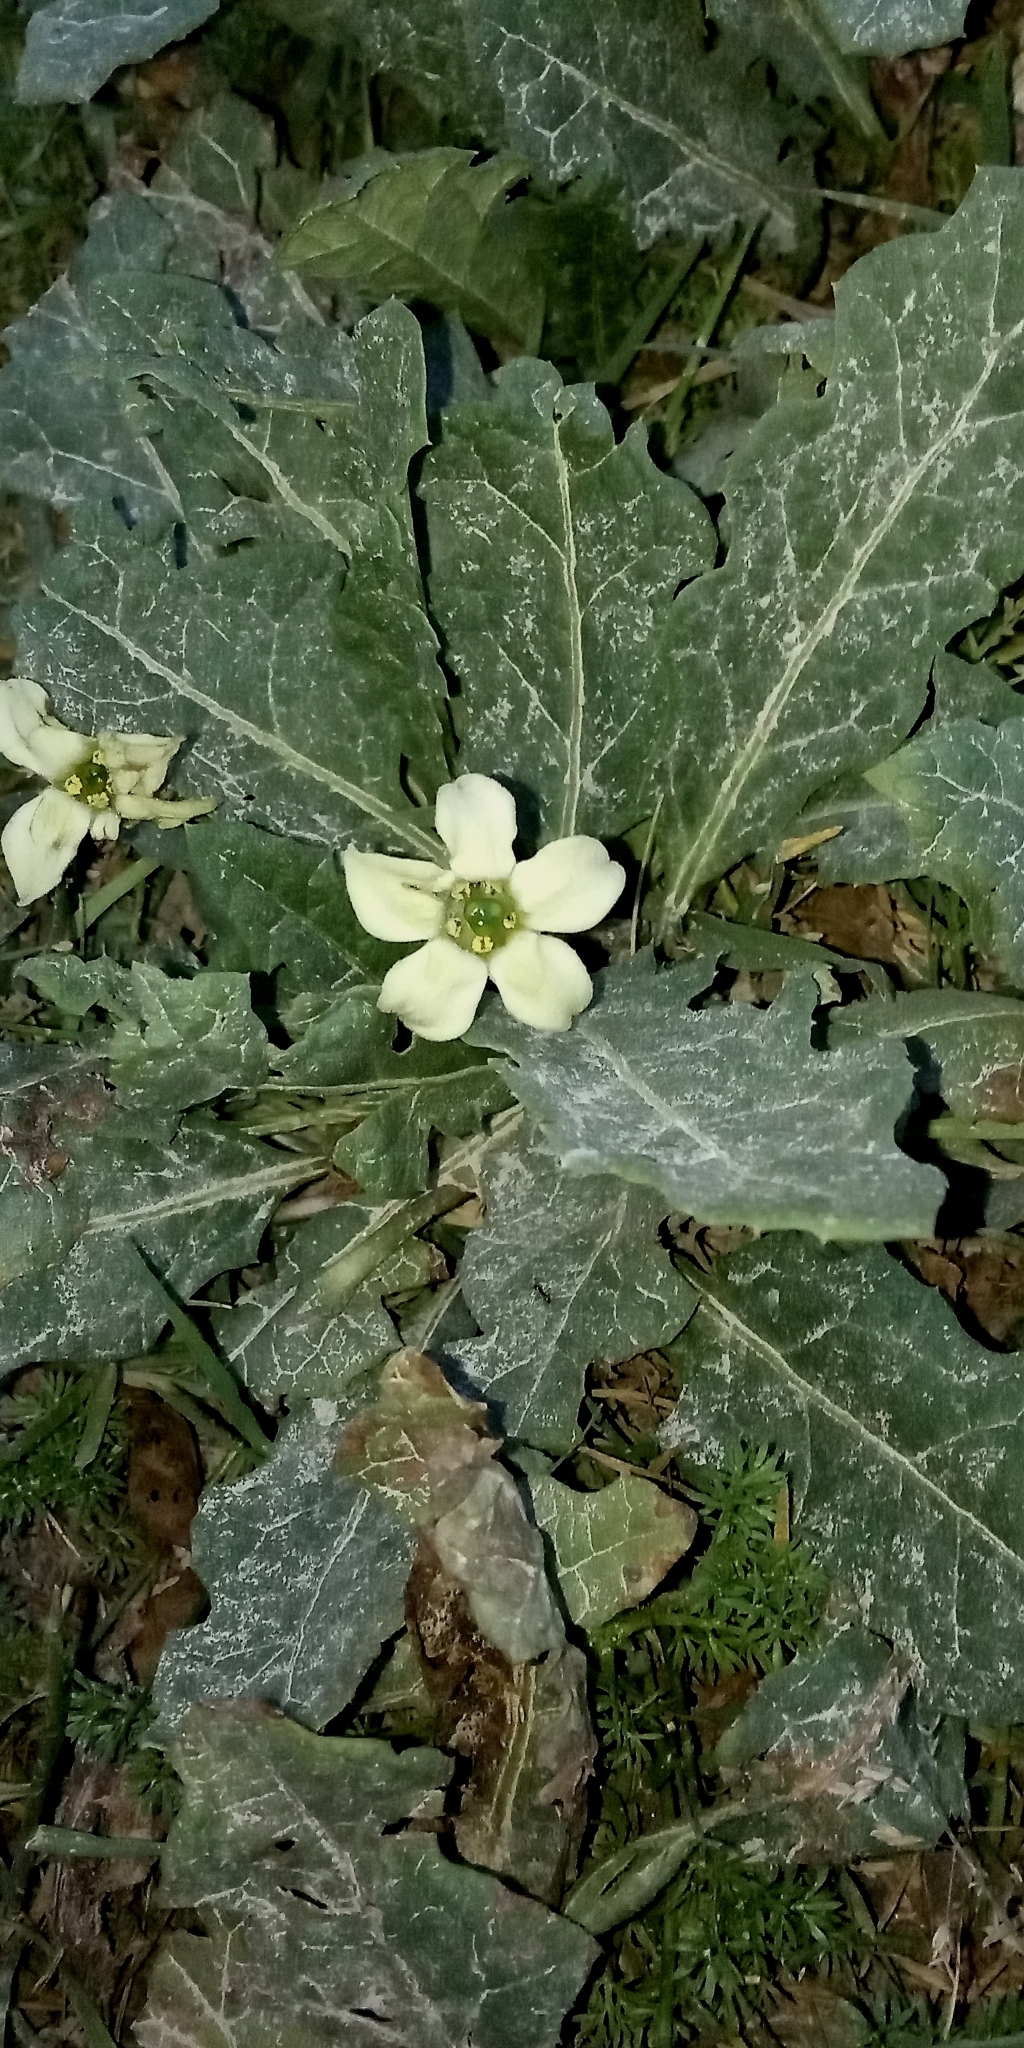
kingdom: Plantae
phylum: Tracheophyta
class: Magnoliopsida
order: Solanales
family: Solanaceae
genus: Jaborosa
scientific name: Jaborosa runcinata
